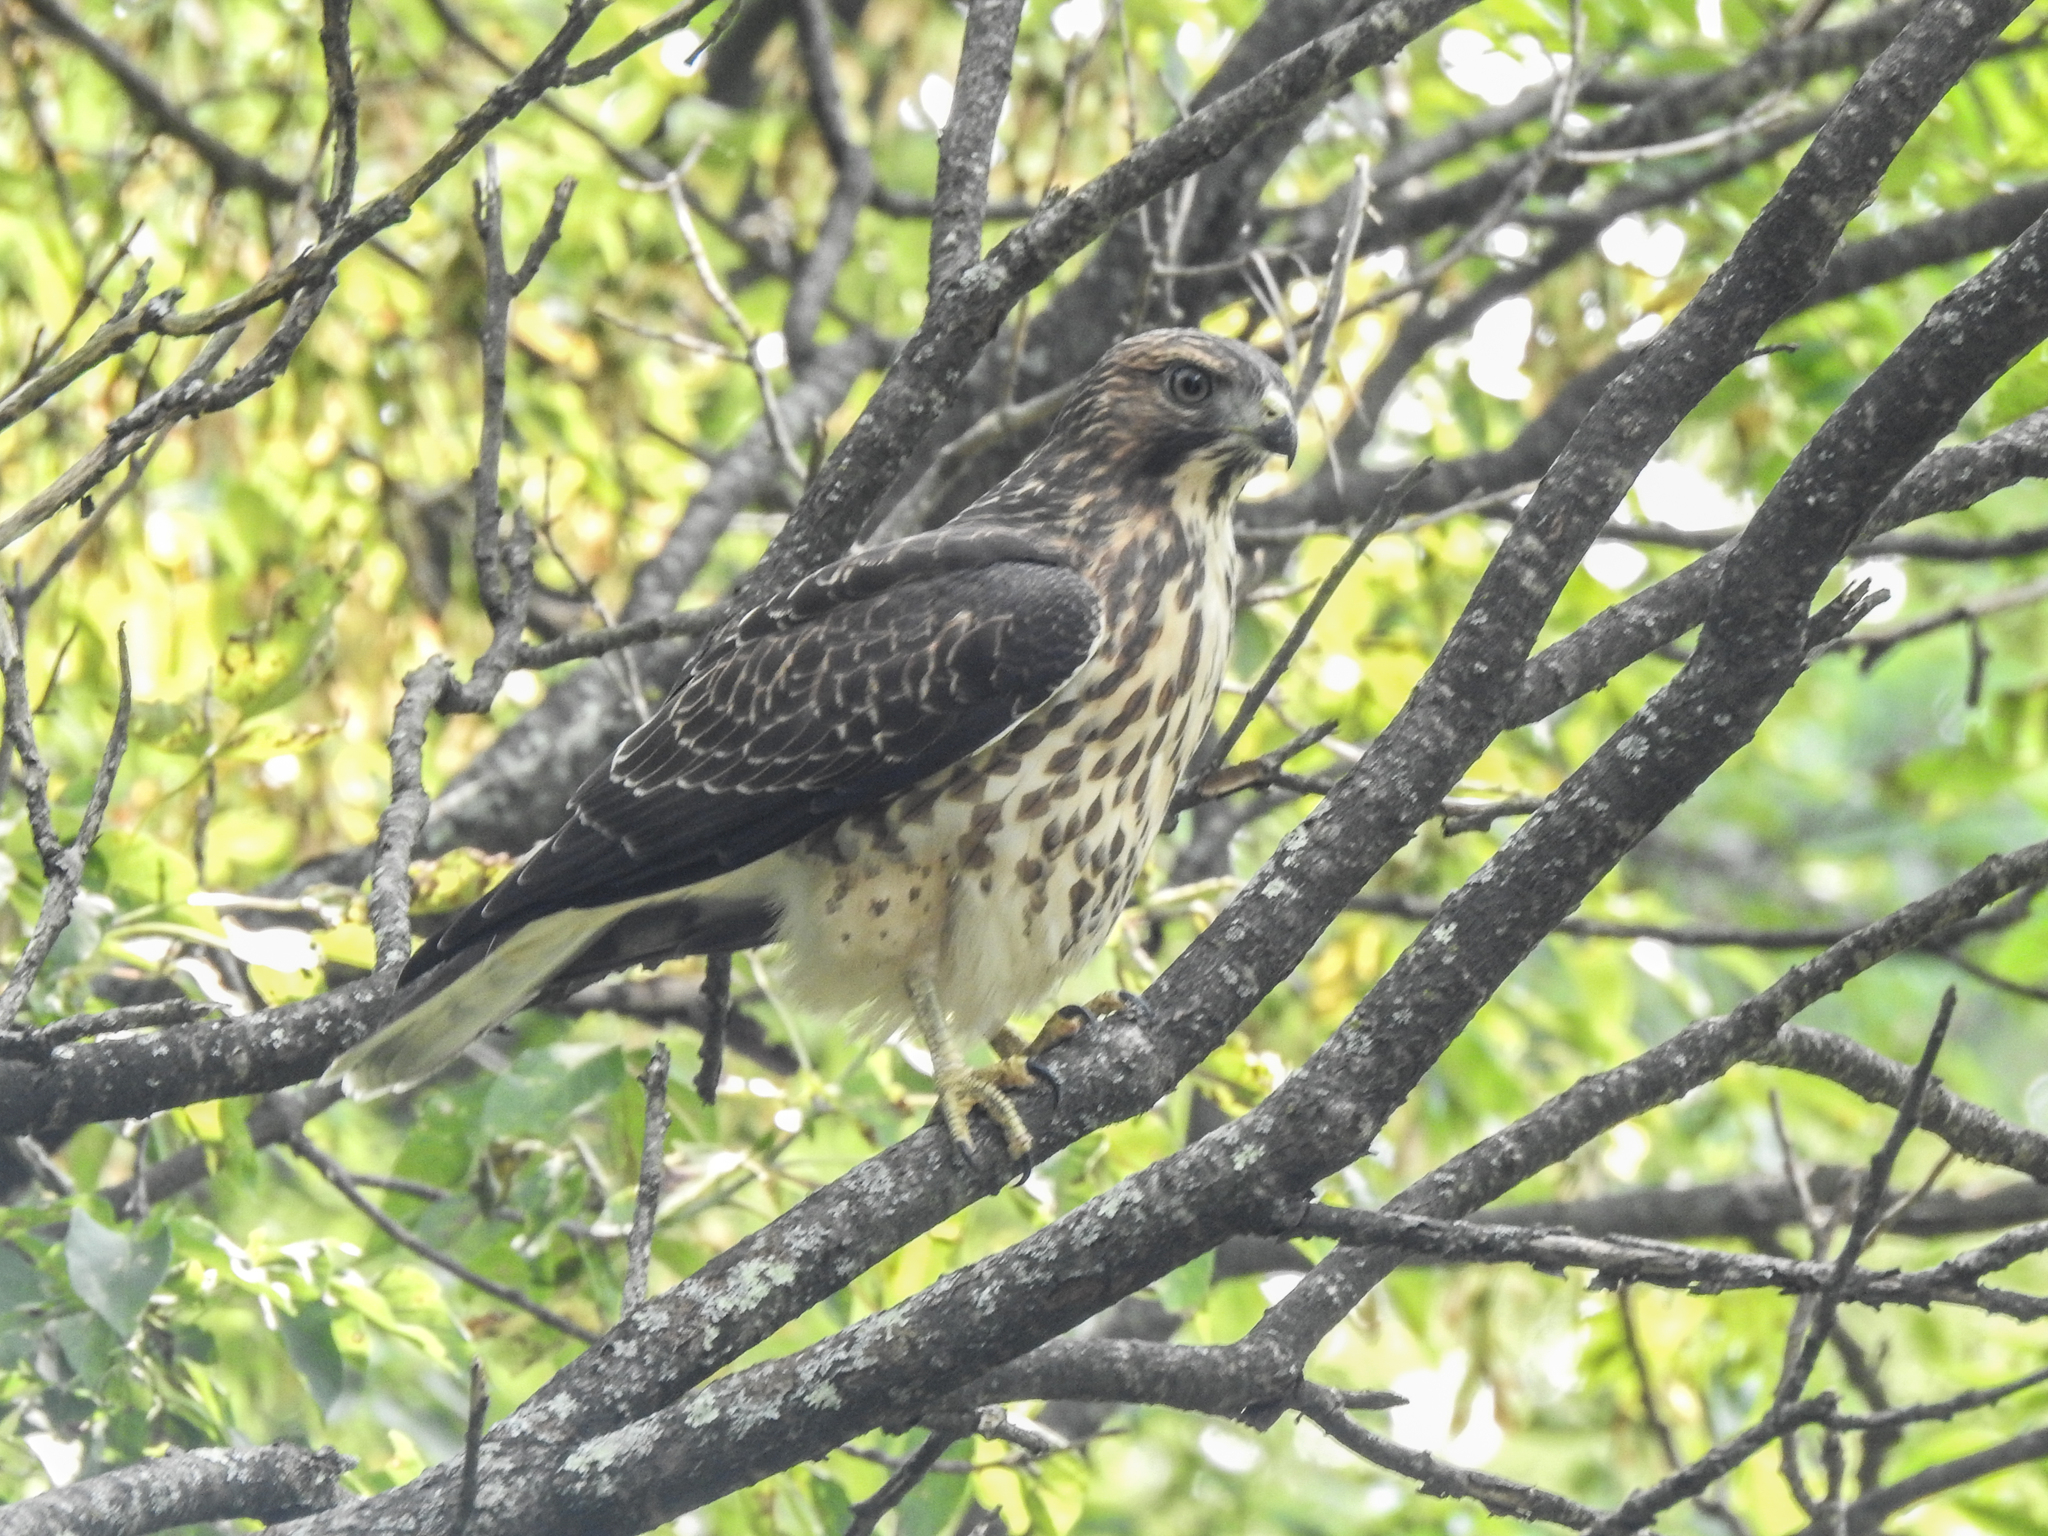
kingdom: Animalia
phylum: Chordata
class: Aves
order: Accipitriformes
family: Accipitridae
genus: Buteo
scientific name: Buteo platypterus
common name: Broad-winged hawk
